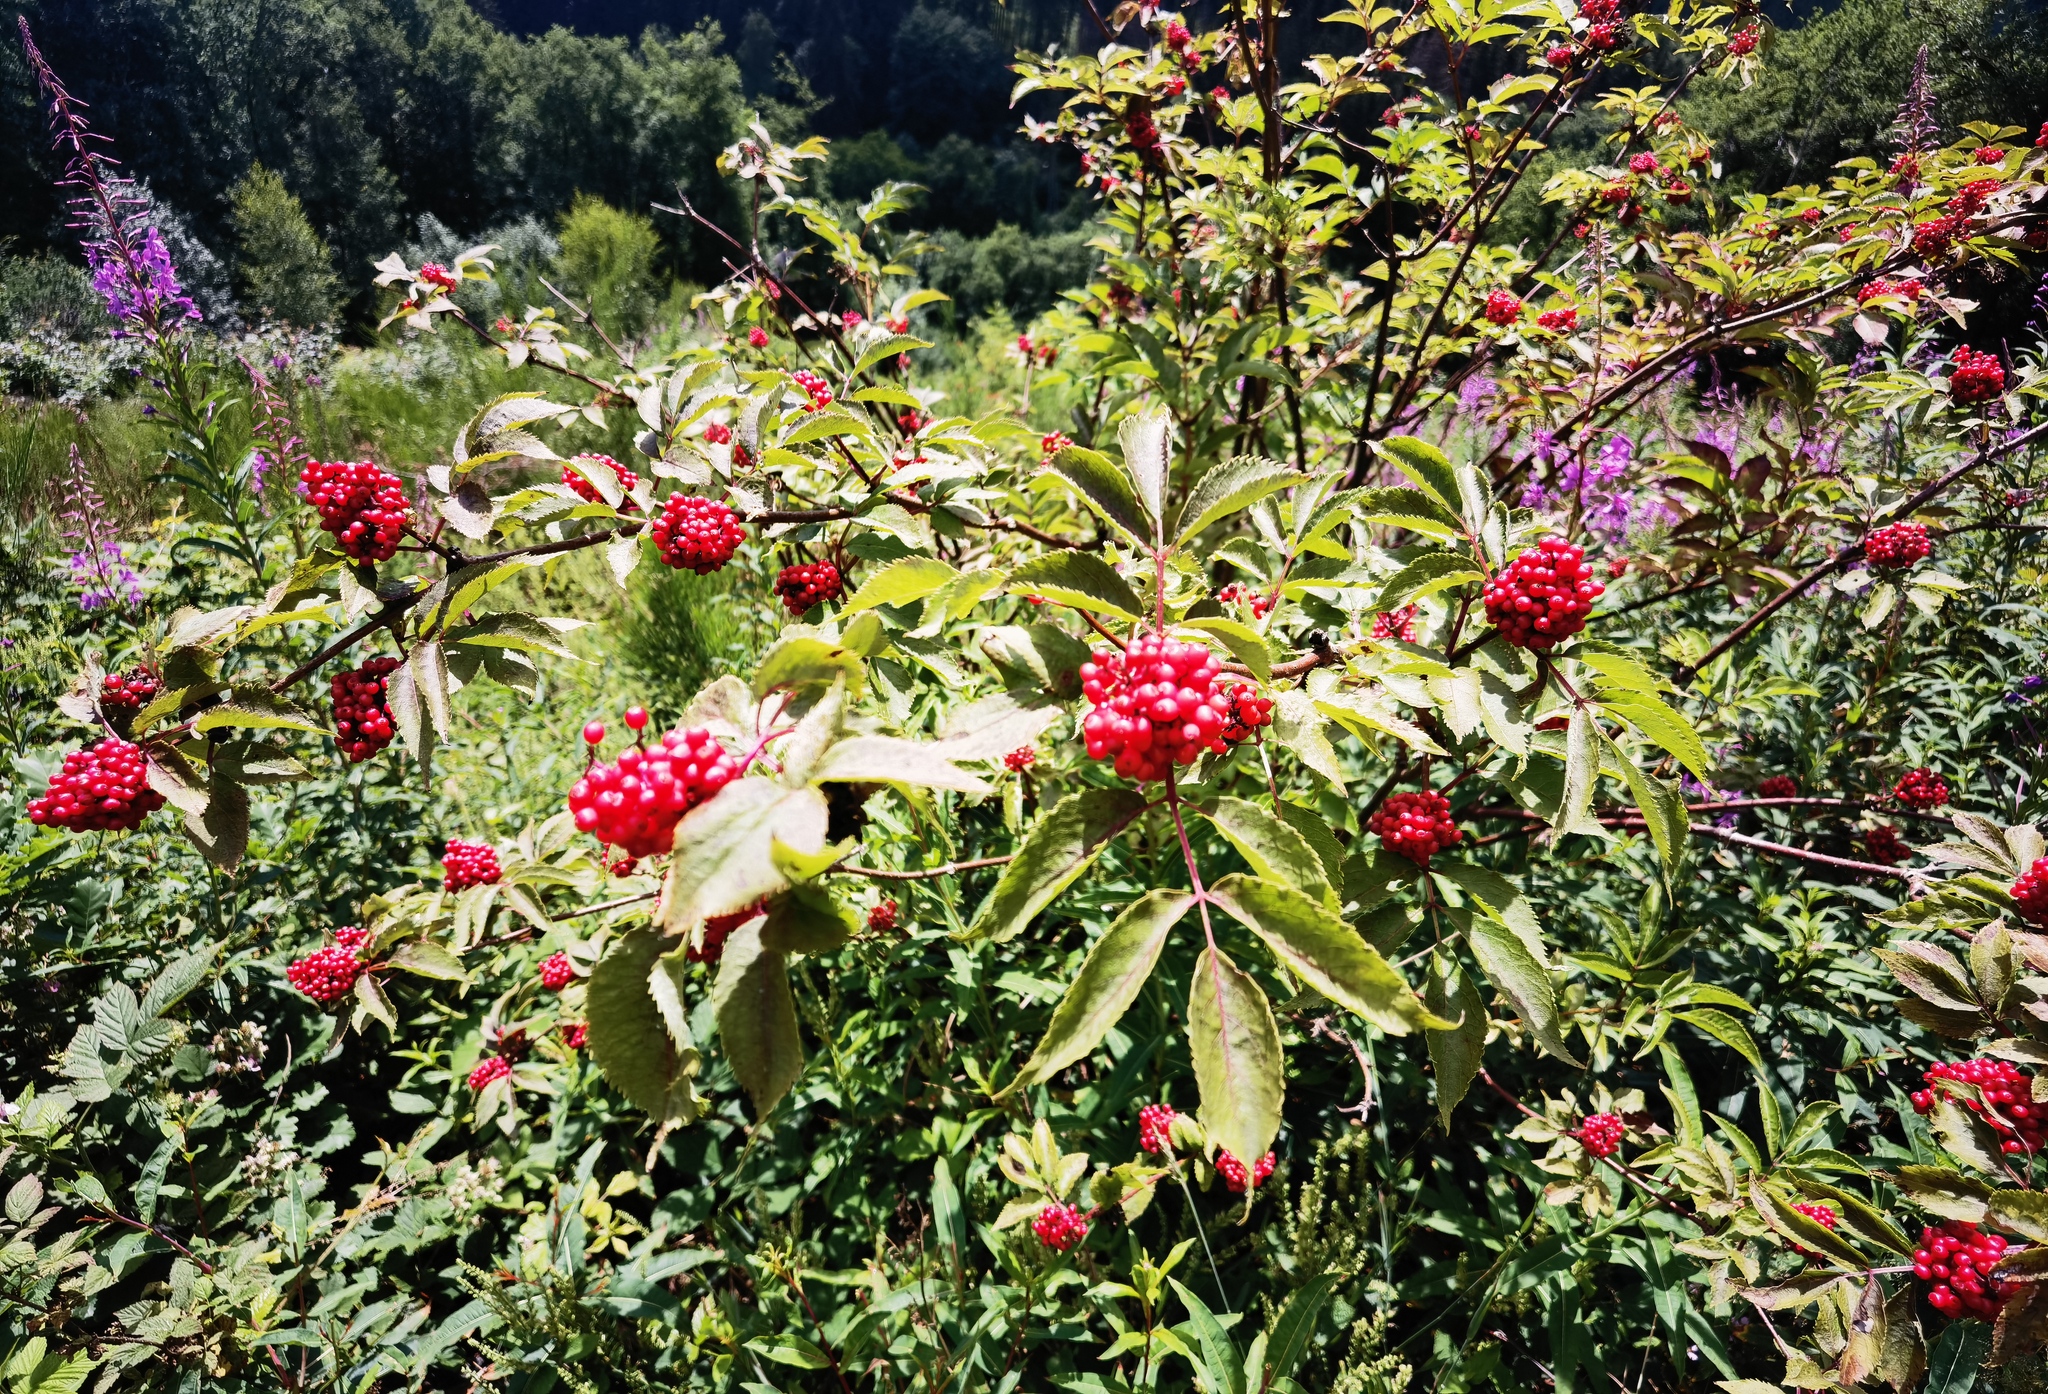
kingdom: Plantae
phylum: Tracheophyta
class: Magnoliopsida
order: Dipsacales
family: Viburnaceae
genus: Sambucus
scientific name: Sambucus racemosa
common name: Red-berried elder
